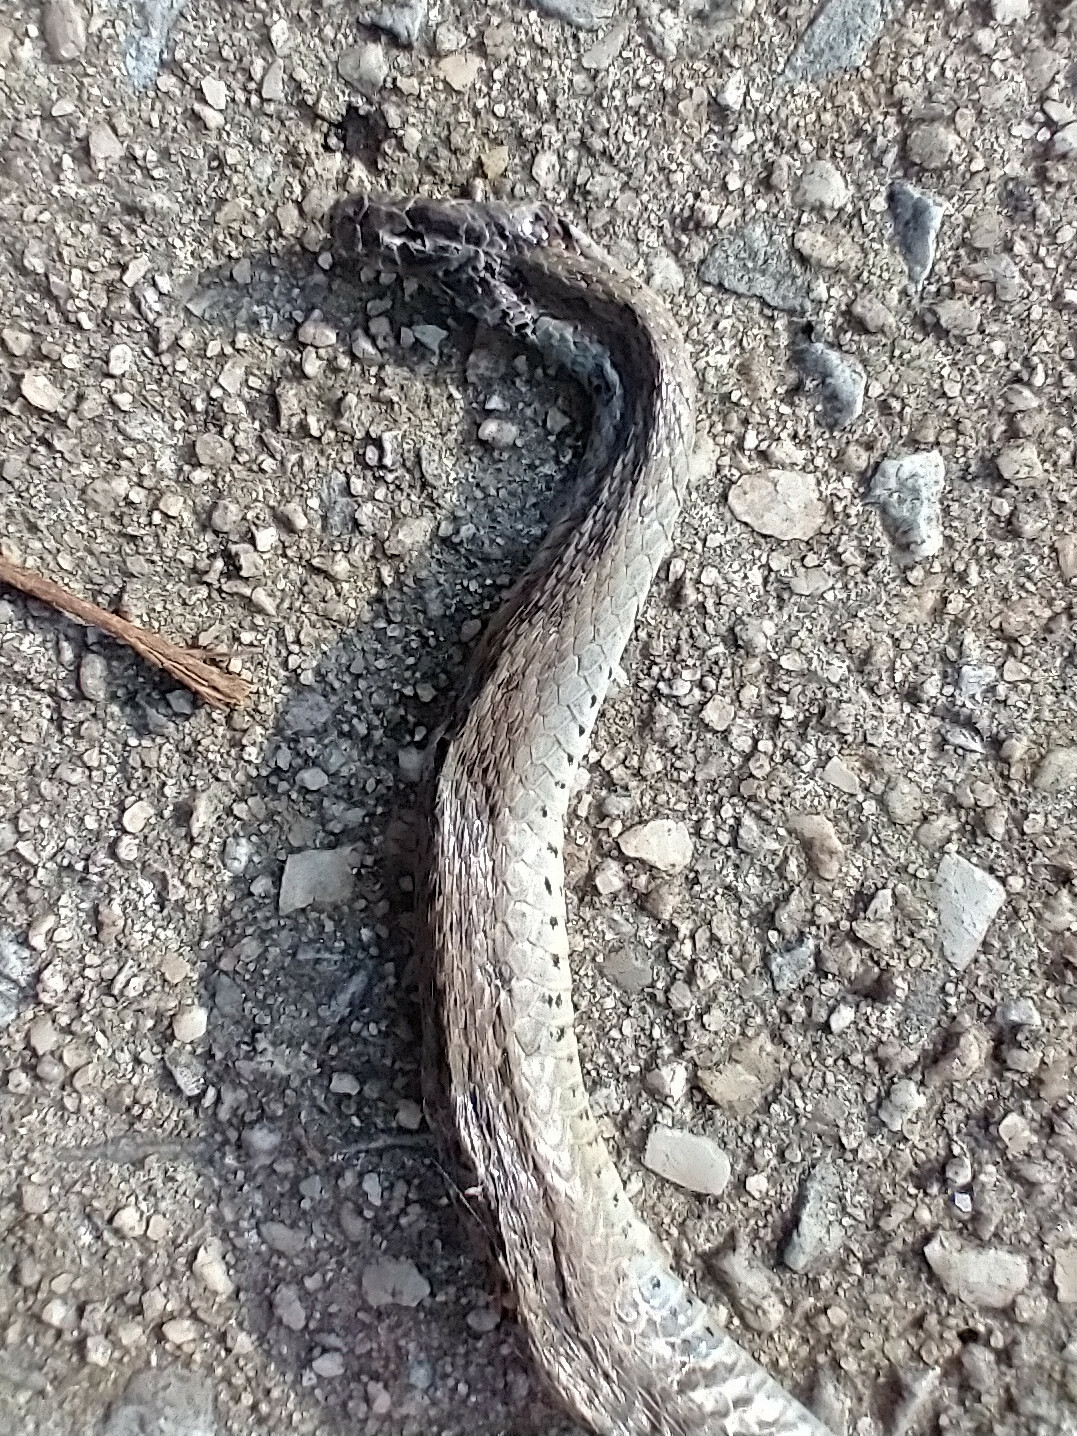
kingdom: Animalia
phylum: Chordata
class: Squamata
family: Colubridae
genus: Storeria
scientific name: Storeria dekayi
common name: (dekay’s) brown snake
